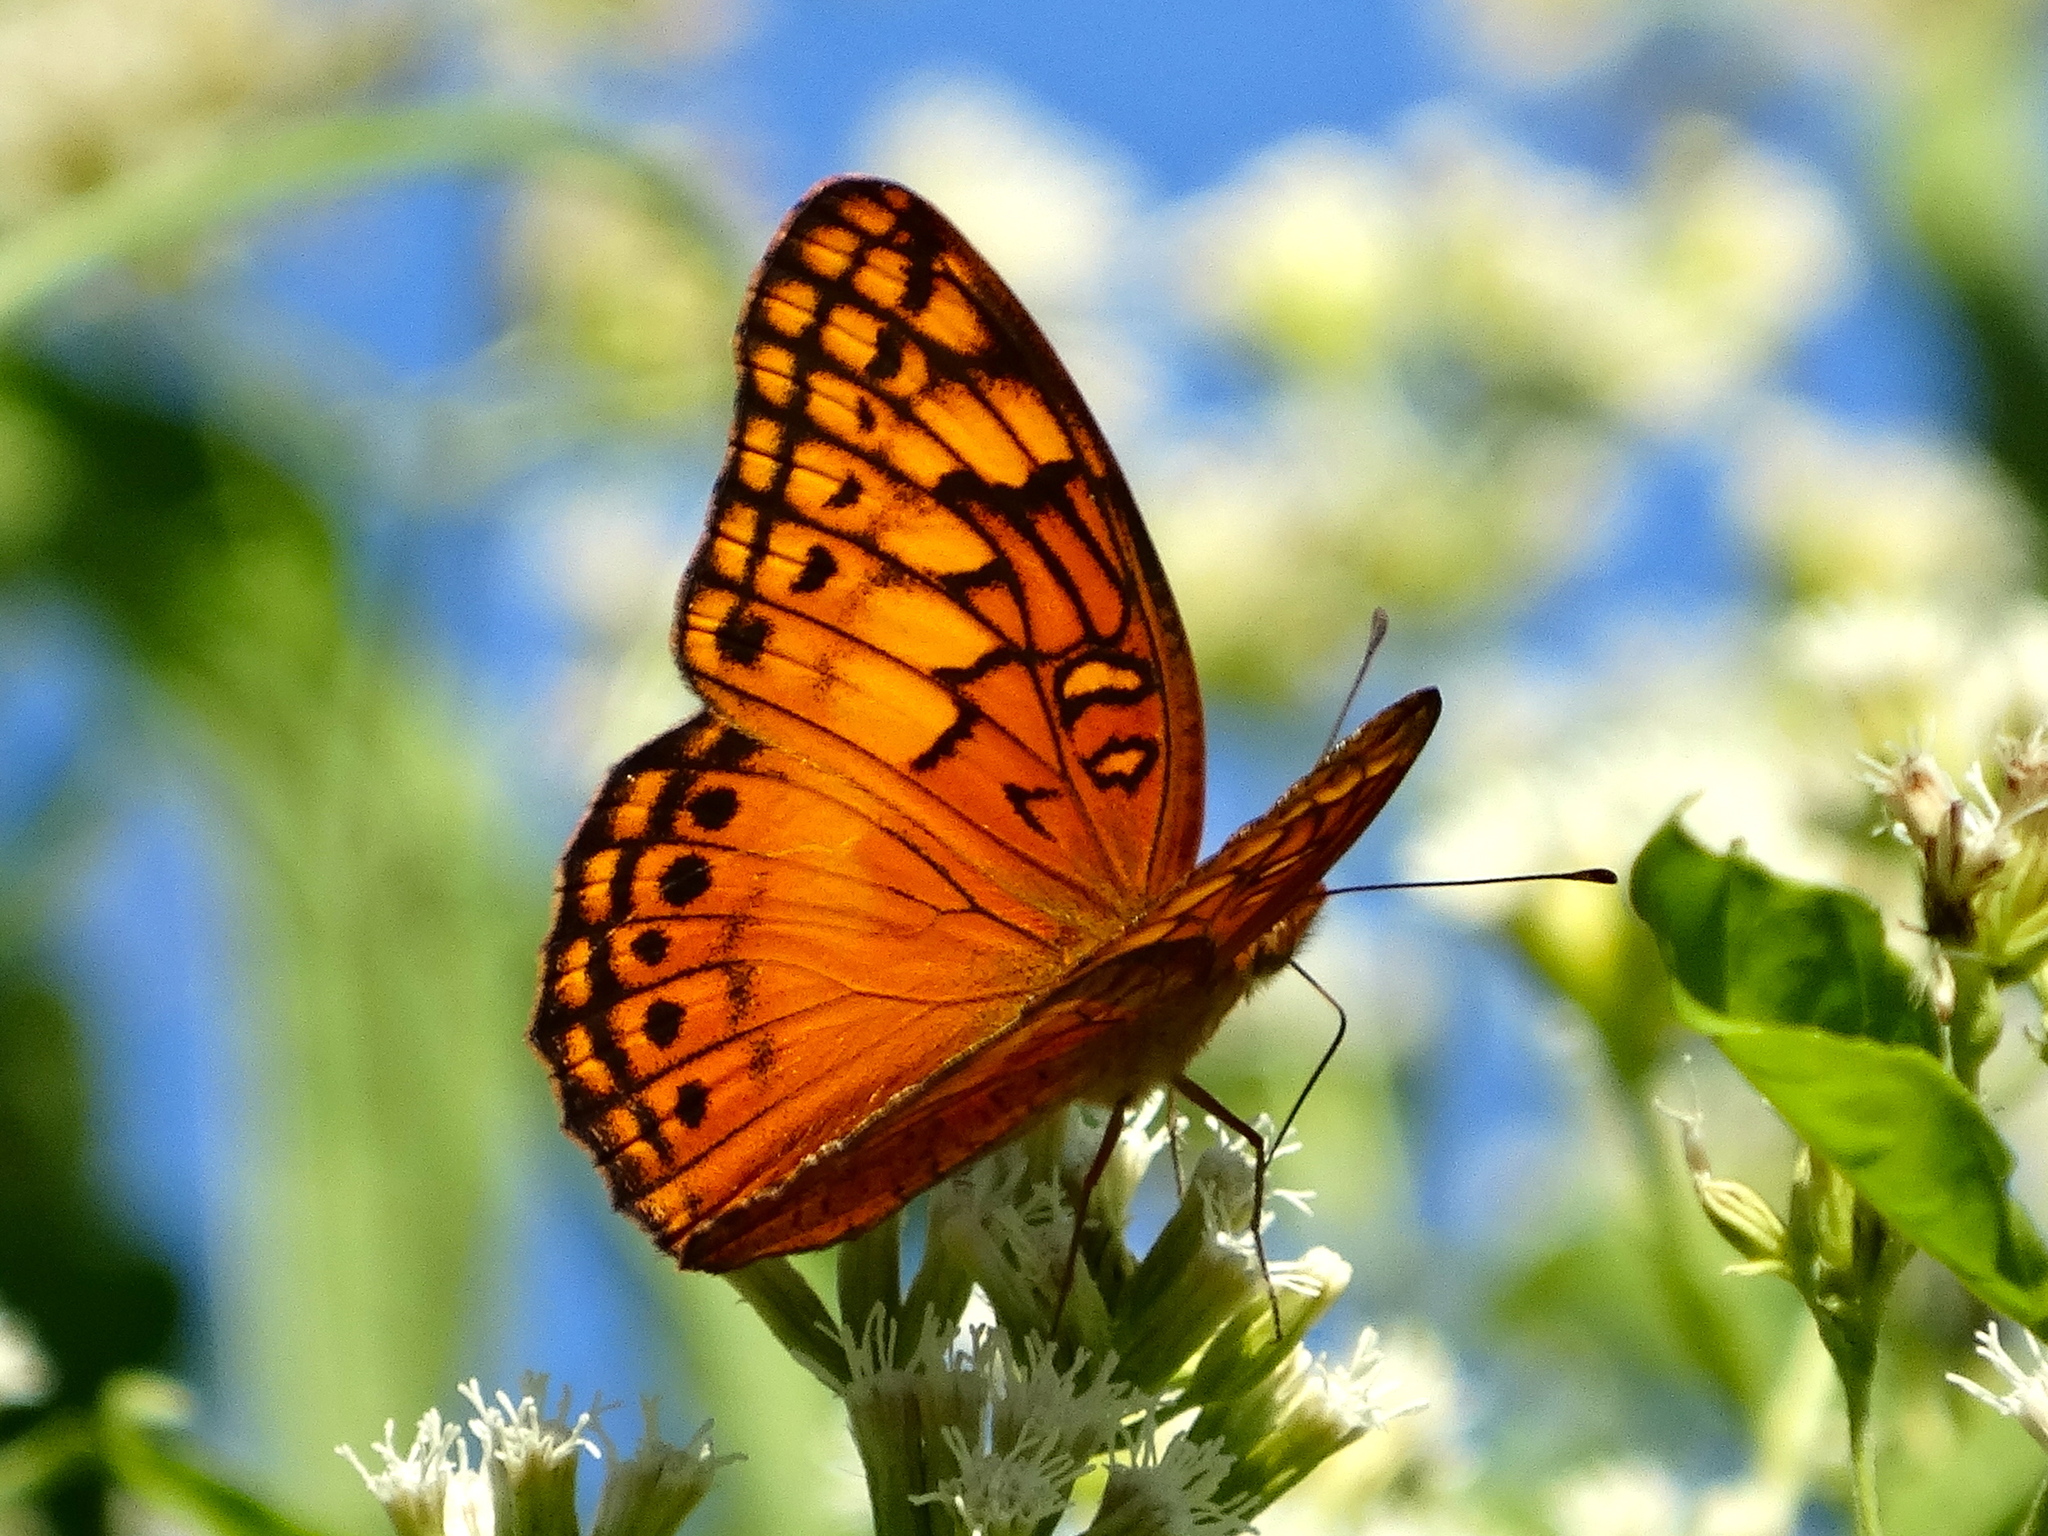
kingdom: Animalia
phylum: Arthropoda
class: Insecta
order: Lepidoptera
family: Nymphalidae
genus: Euptoieta
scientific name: Euptoieta hegesia
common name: Mexican fritillary
